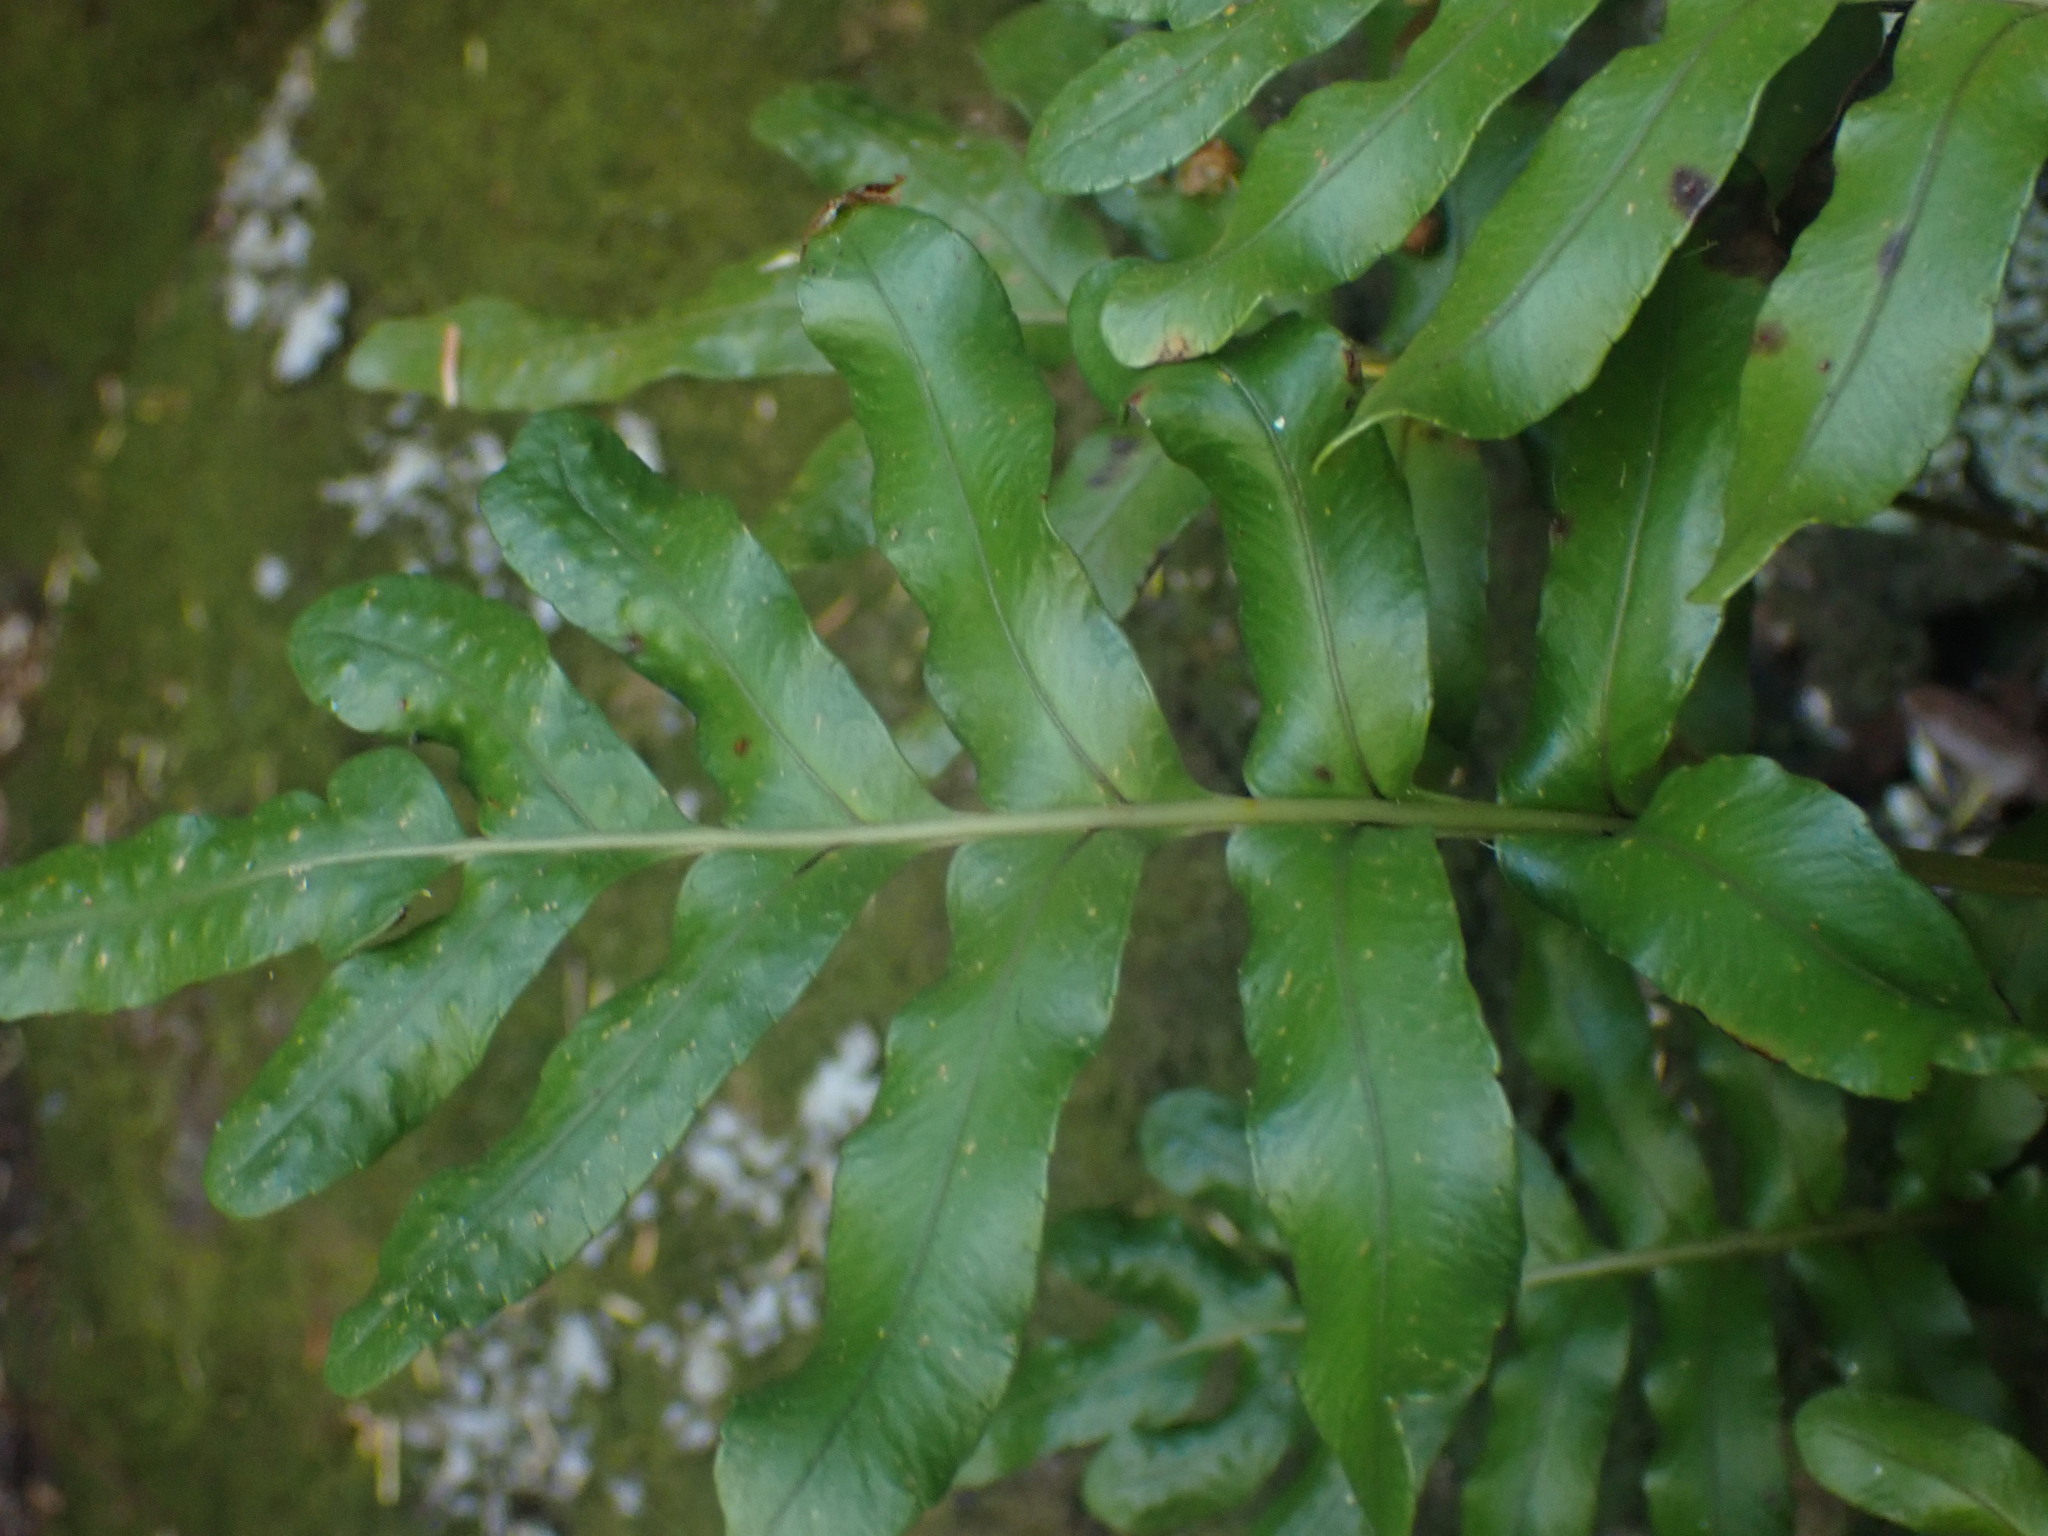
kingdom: Plantae
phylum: Tracheophyta
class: Polypodiopsida
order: Polypodiales
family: Polypodiaceae
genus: Polypodium
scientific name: Polypodium scouleri
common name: Scouler's polypody
